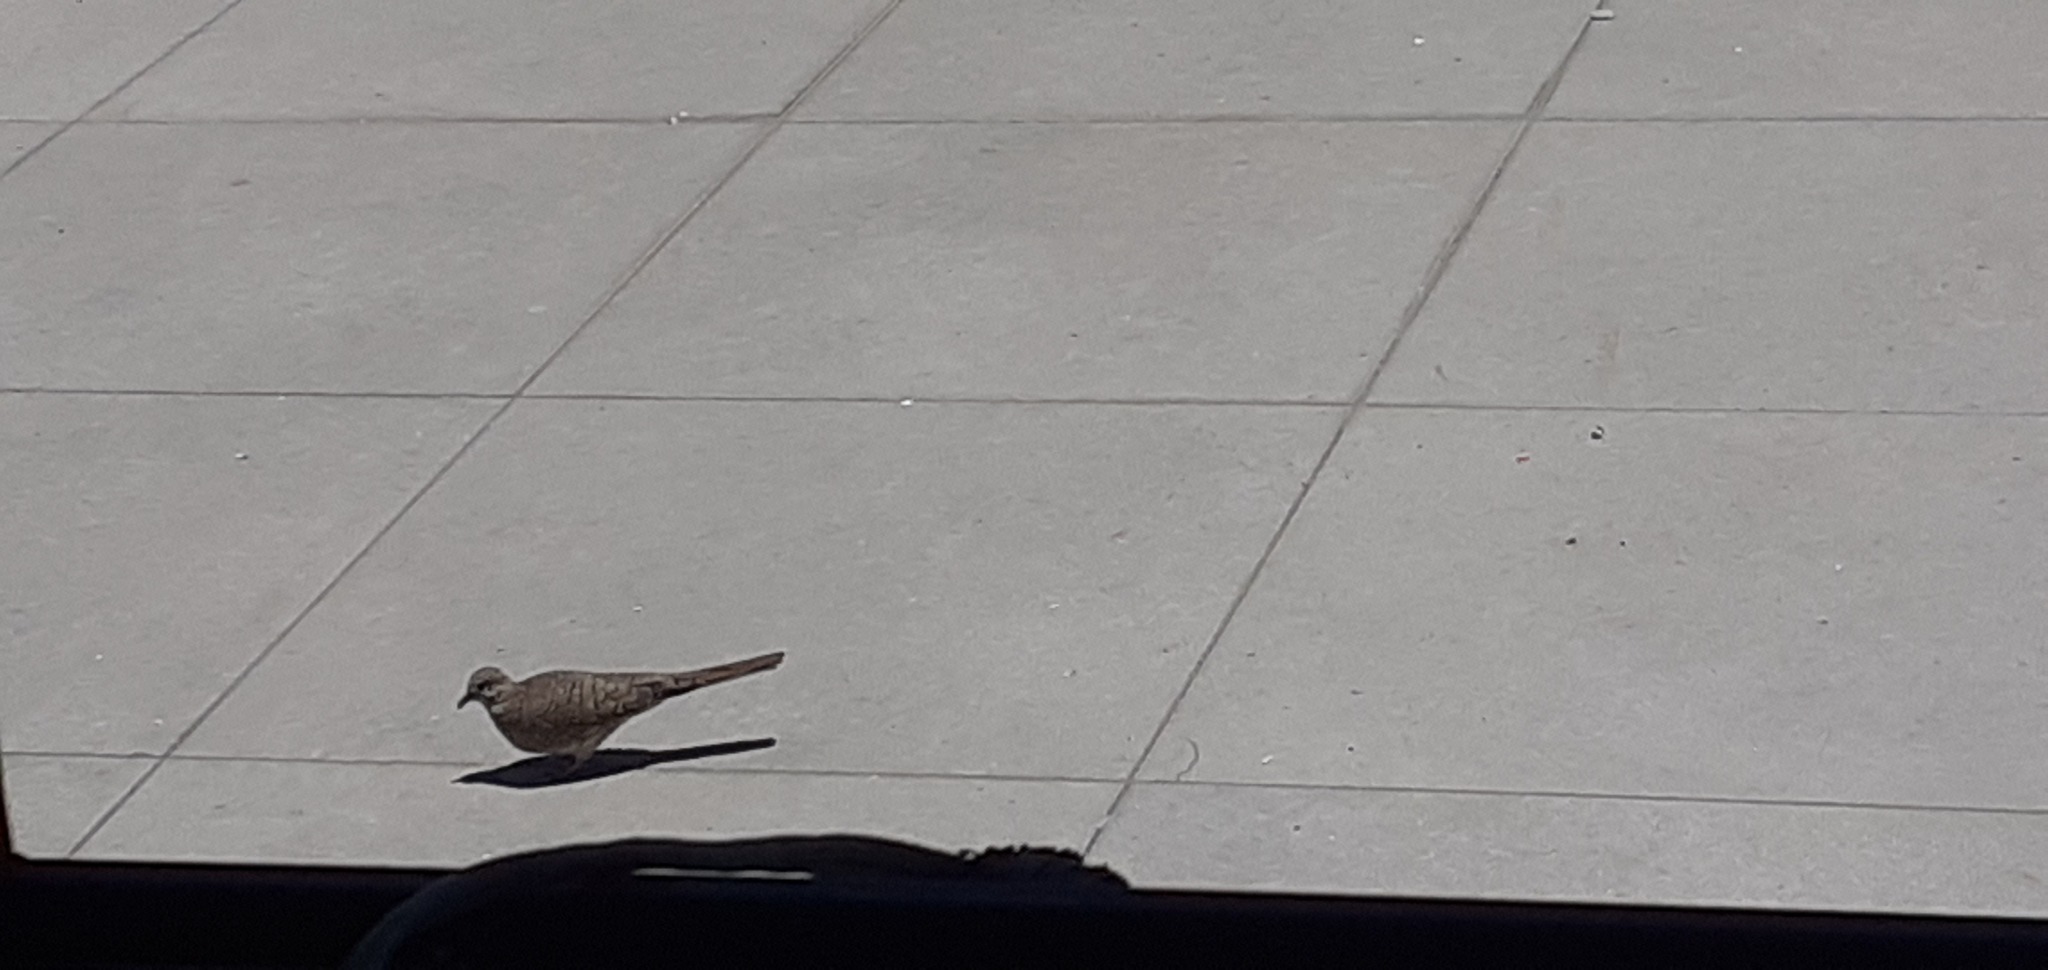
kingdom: Animalia
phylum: Chordata
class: Aves
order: Columbiformes
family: Columbidae
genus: Columbina
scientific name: Columbina inca
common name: Inca dove
